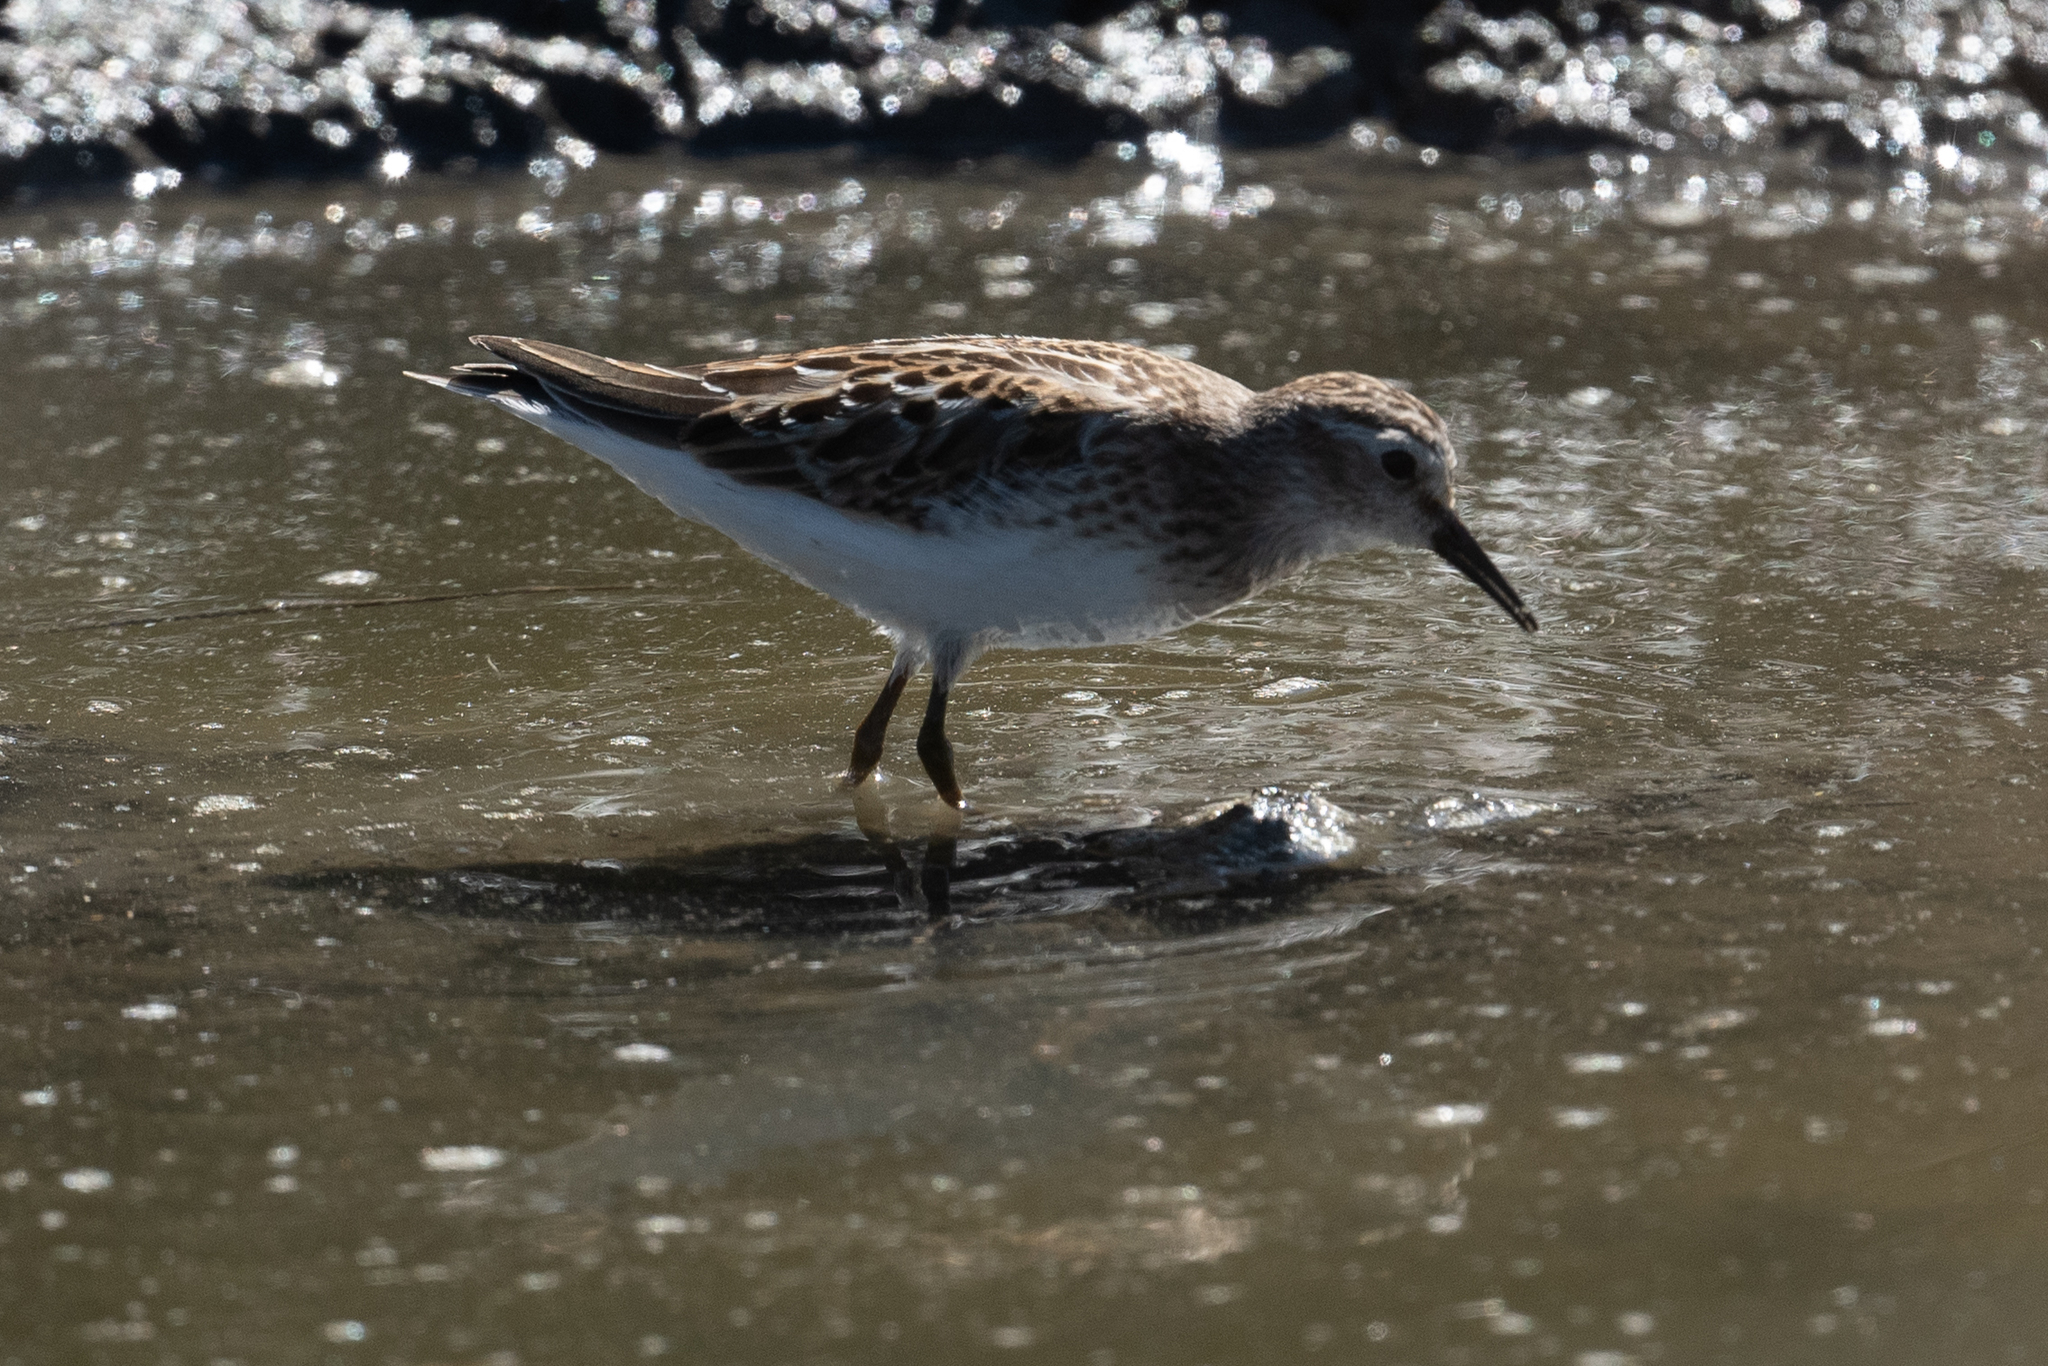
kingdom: Animalia
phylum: Chordata
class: Aves
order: Charadriiformes
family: Scolopacidae
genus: Calidris
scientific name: Calidris minutilla
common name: Least sandpiper
